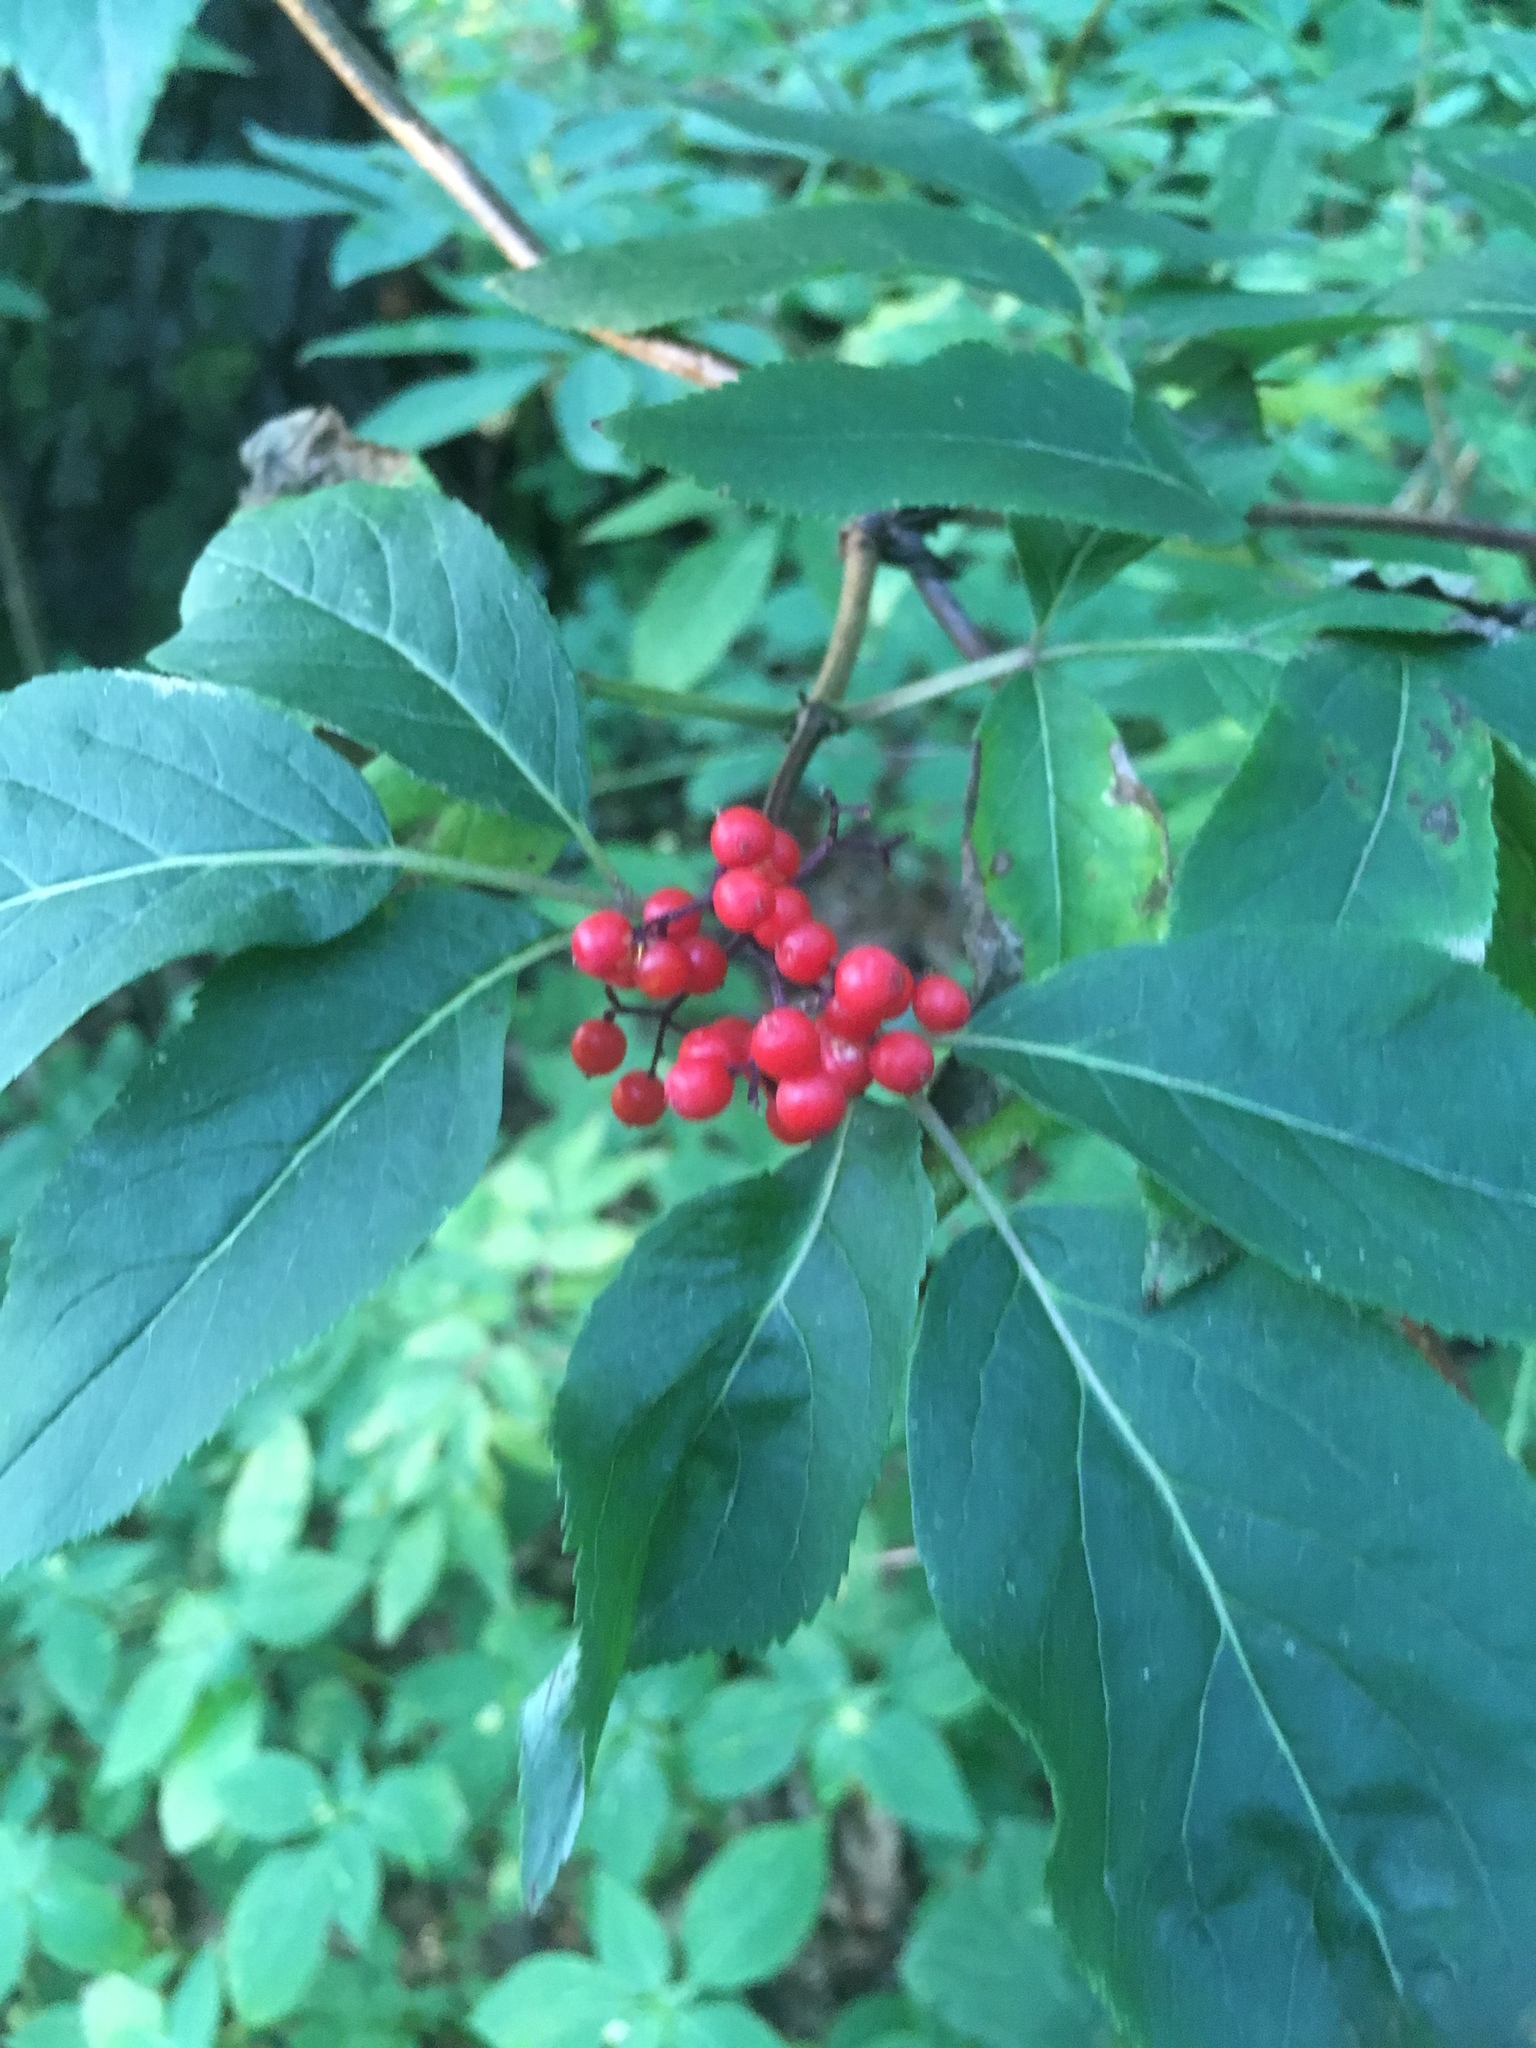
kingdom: Plantae
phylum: Tracheophyta
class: Magnoliopsida
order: Dipsacales
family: Viburnaceae
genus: Sambucus
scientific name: Sambucus racemosa
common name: Red-berried elder
